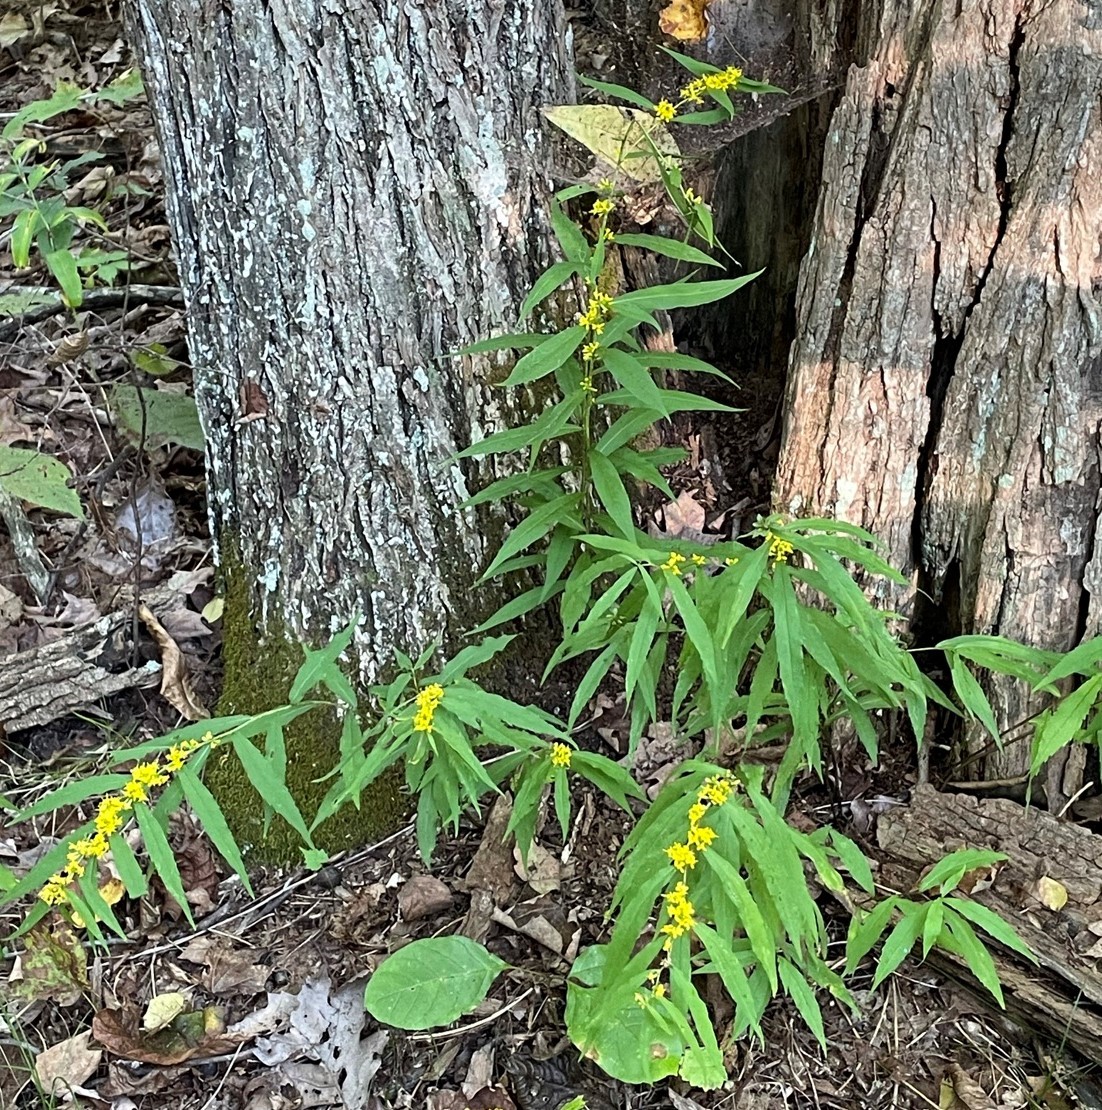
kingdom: Plantae
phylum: Tracheophyta
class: Magnoliopsida
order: Asterales
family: Asteraceae
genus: Solidago
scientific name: Solidago caesia
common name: Woodland goldenrod
